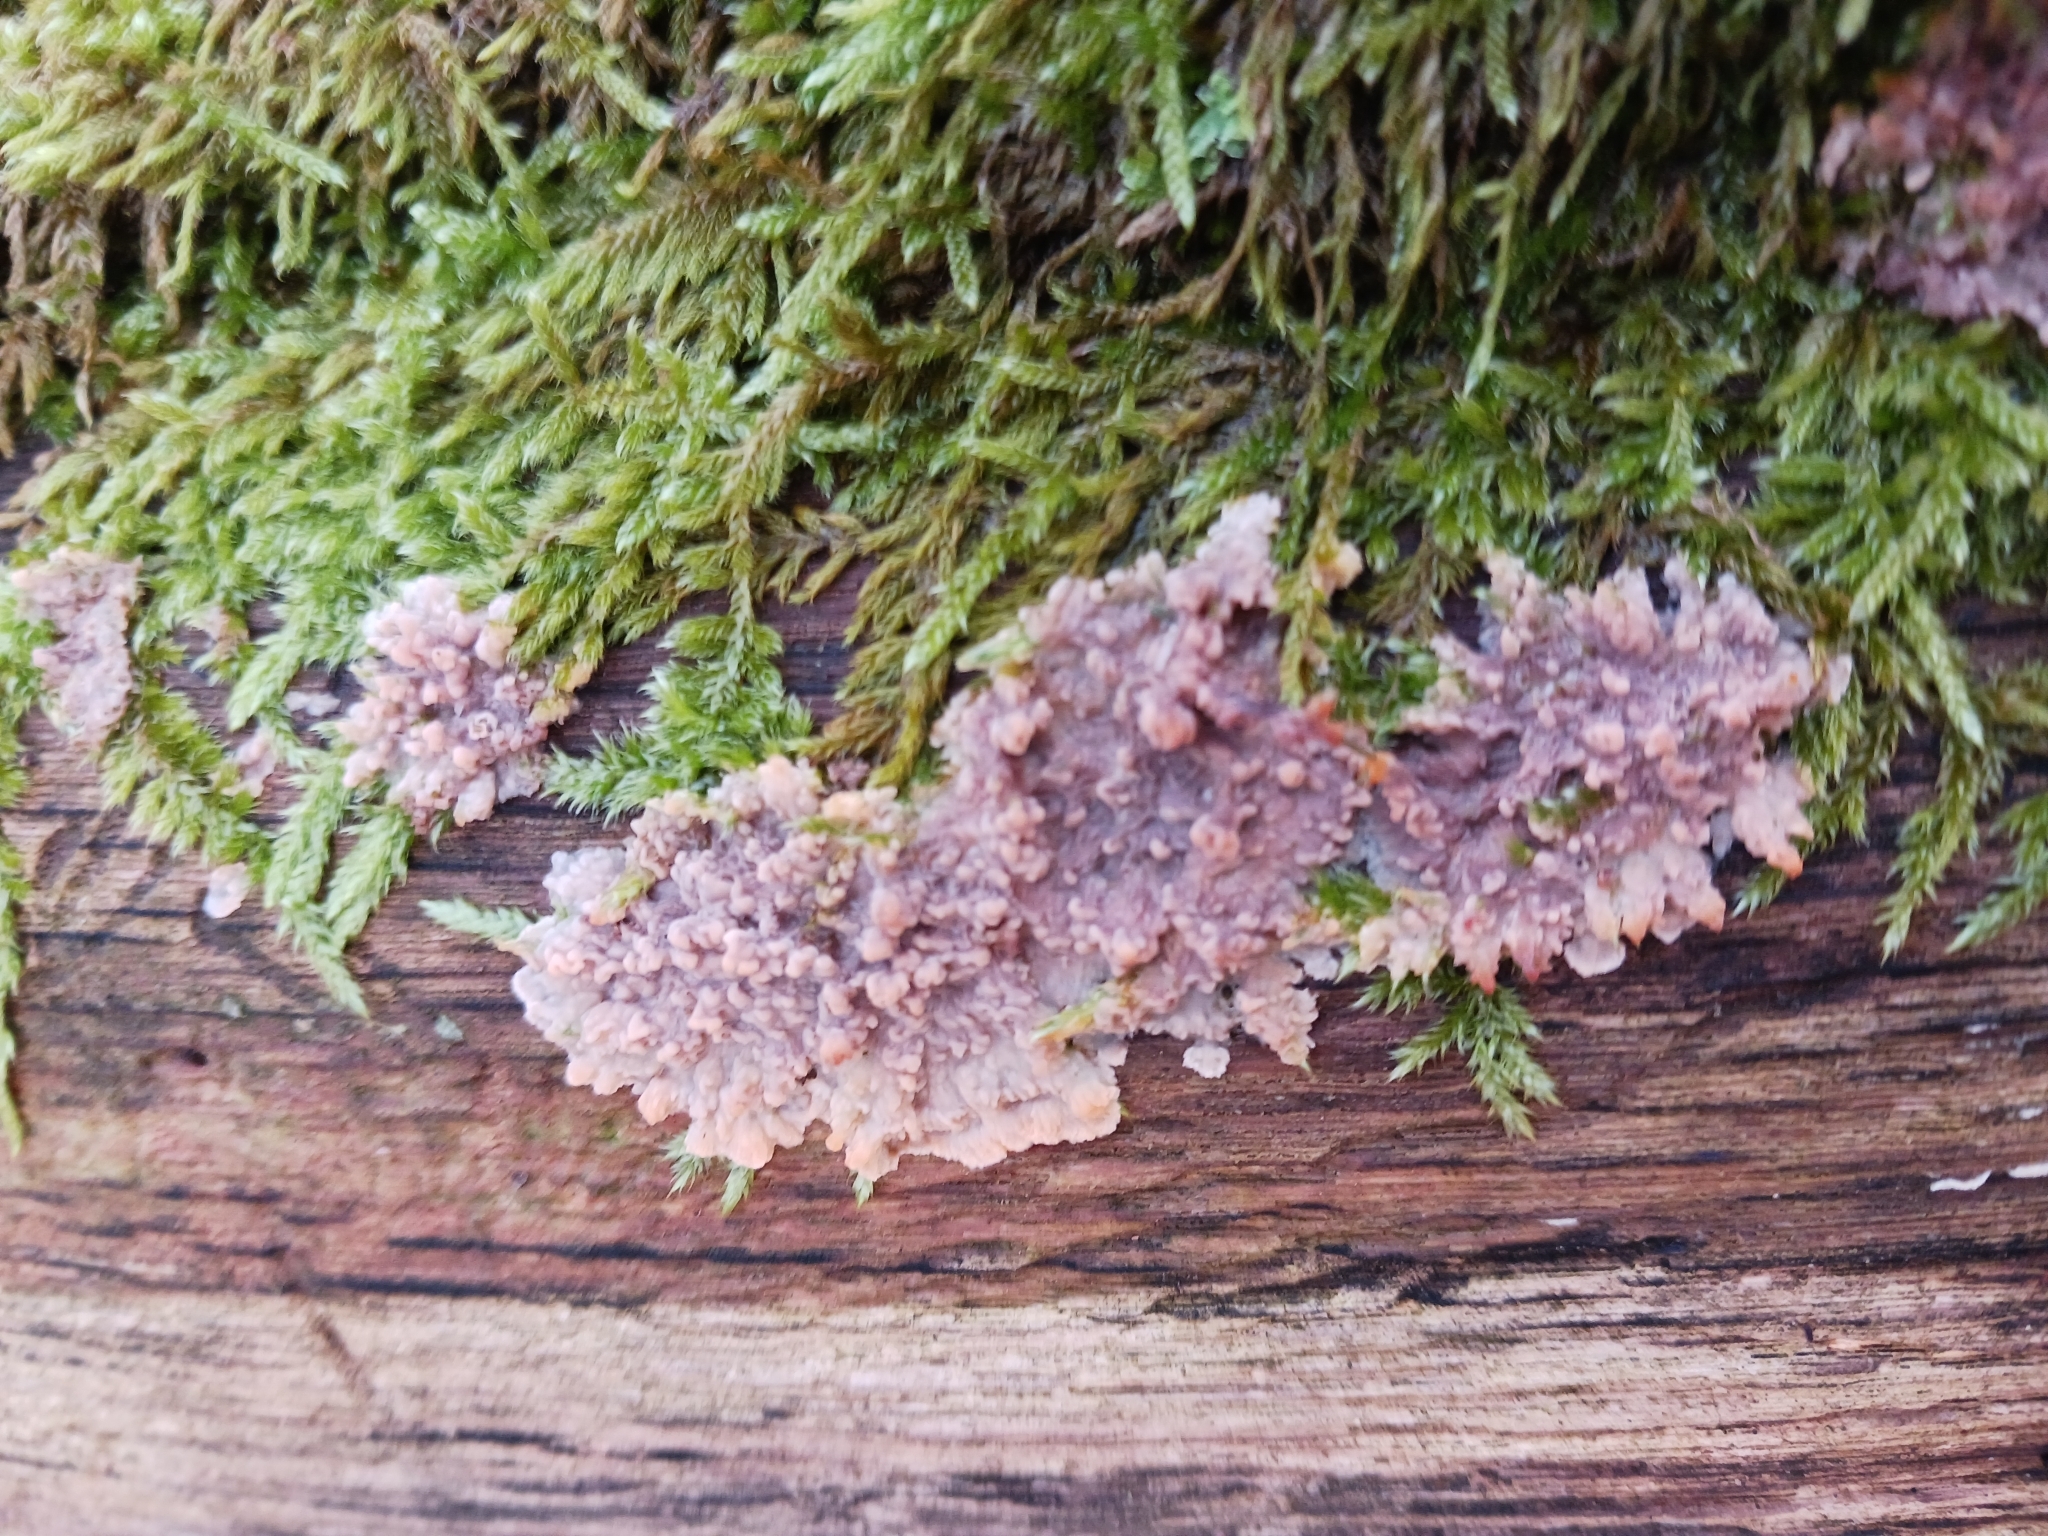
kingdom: Fungi
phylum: Basidiomycota
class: Agaricomycetes
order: Polyporales
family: Meruliaceae
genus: Phlebia
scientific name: Phlebia radiata
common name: Wrinkled crust
